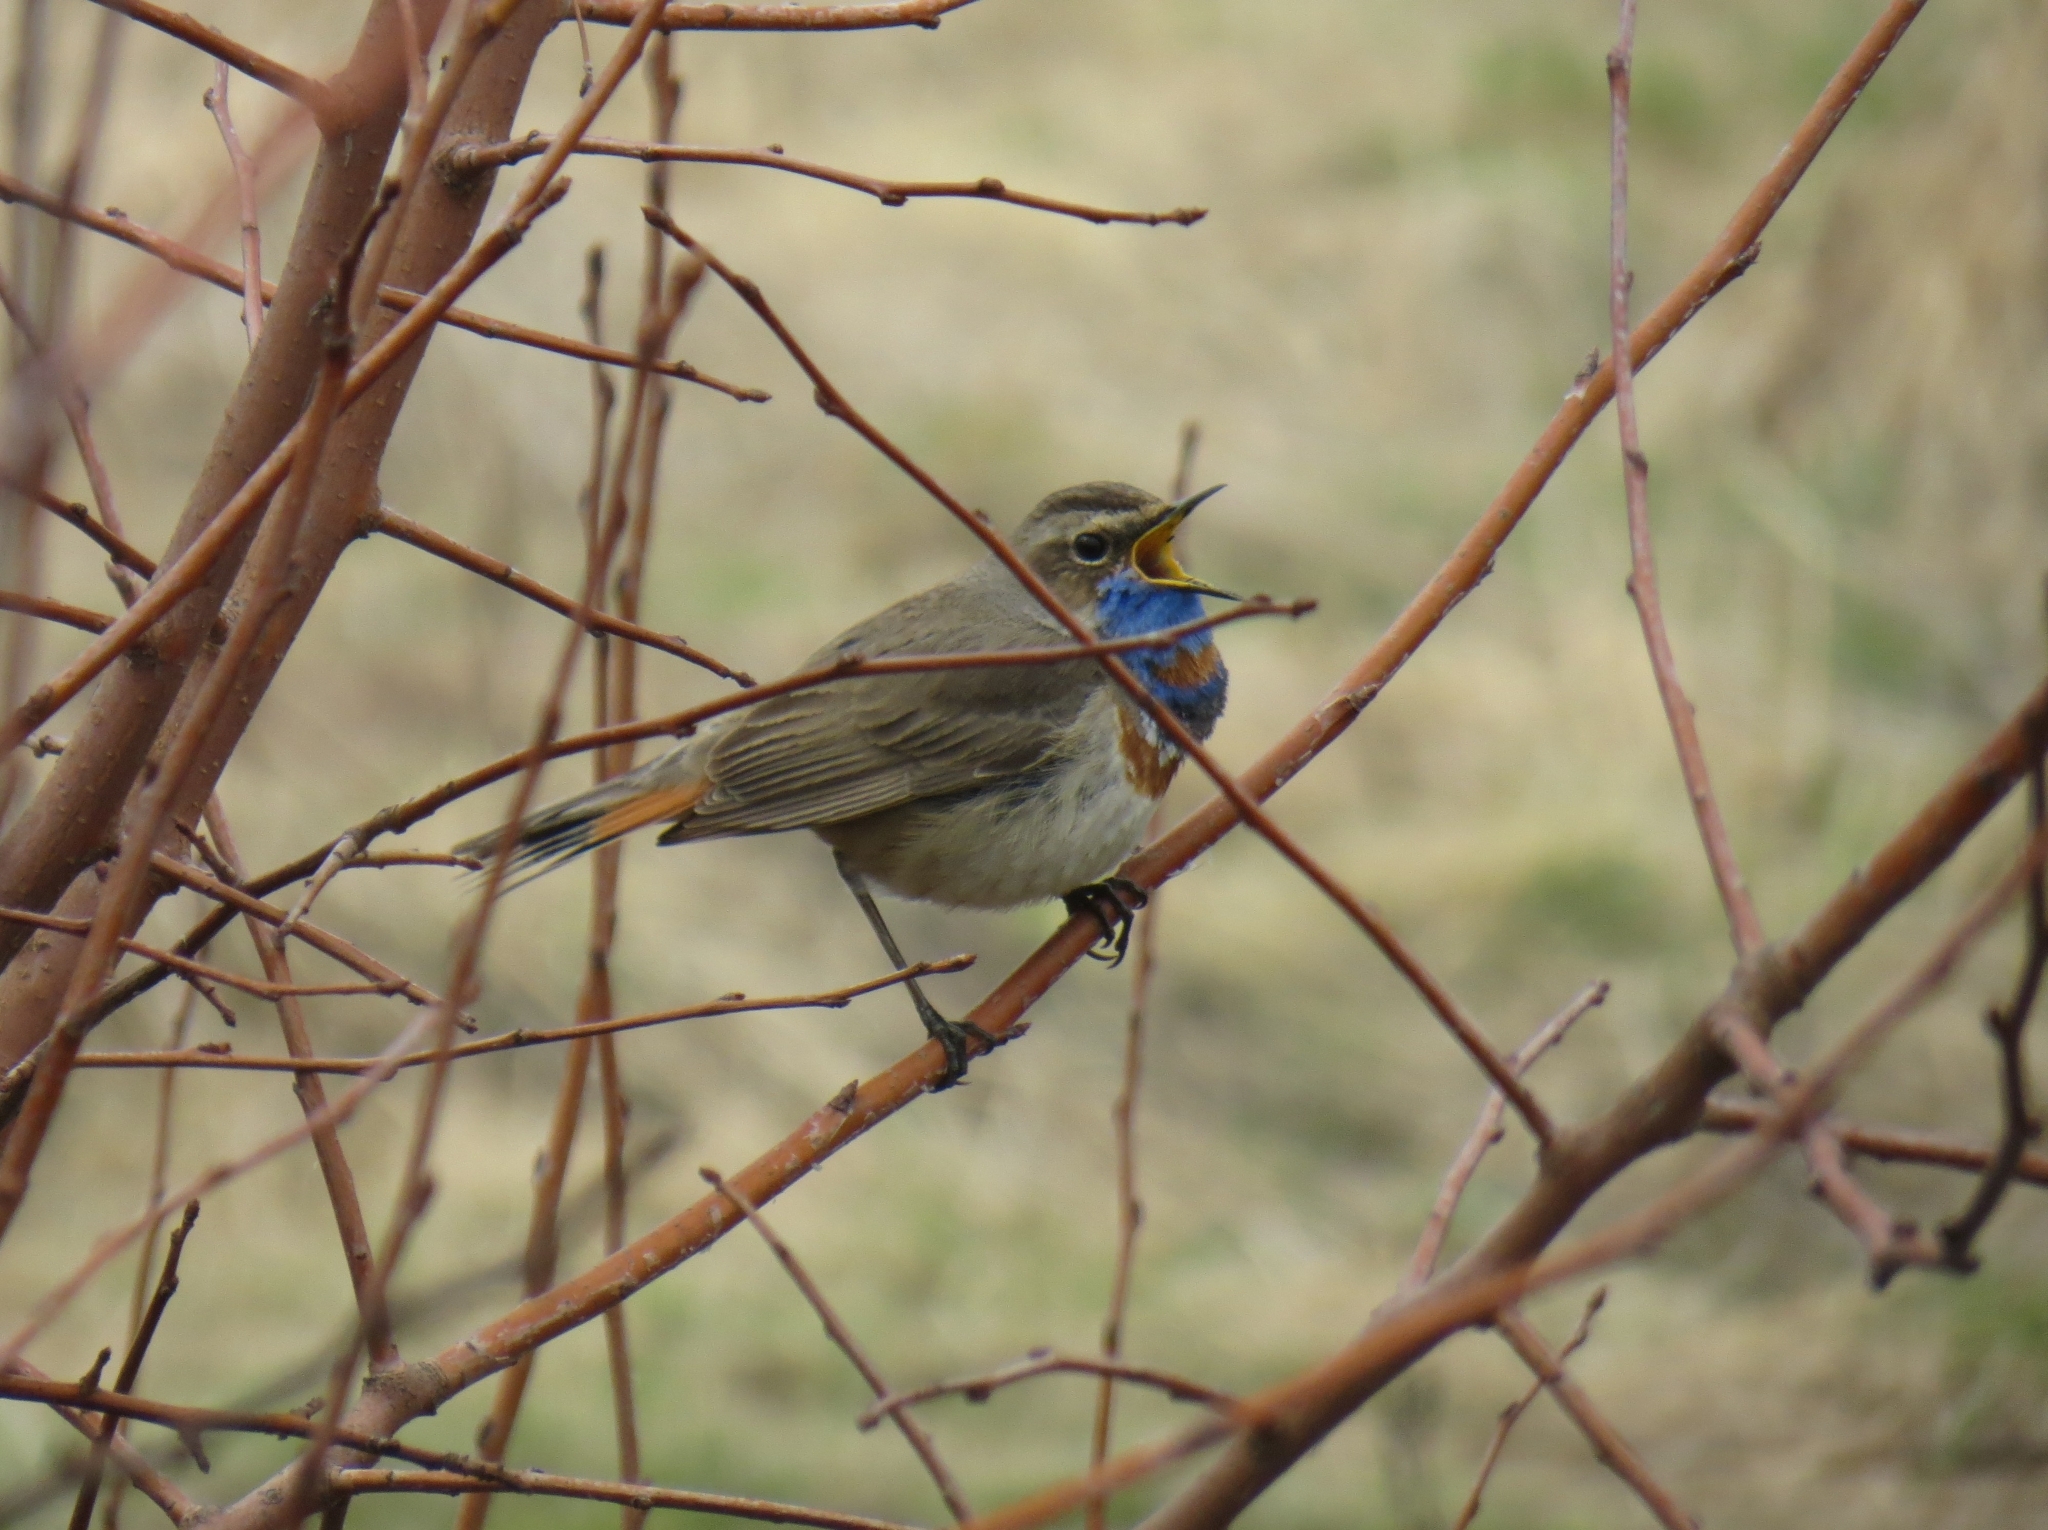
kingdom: Animalia
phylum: Chordata
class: Aves
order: Passeriformes
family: Muscicapidae
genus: Luscinia
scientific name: Luscinia svecica
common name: Bluethroat
